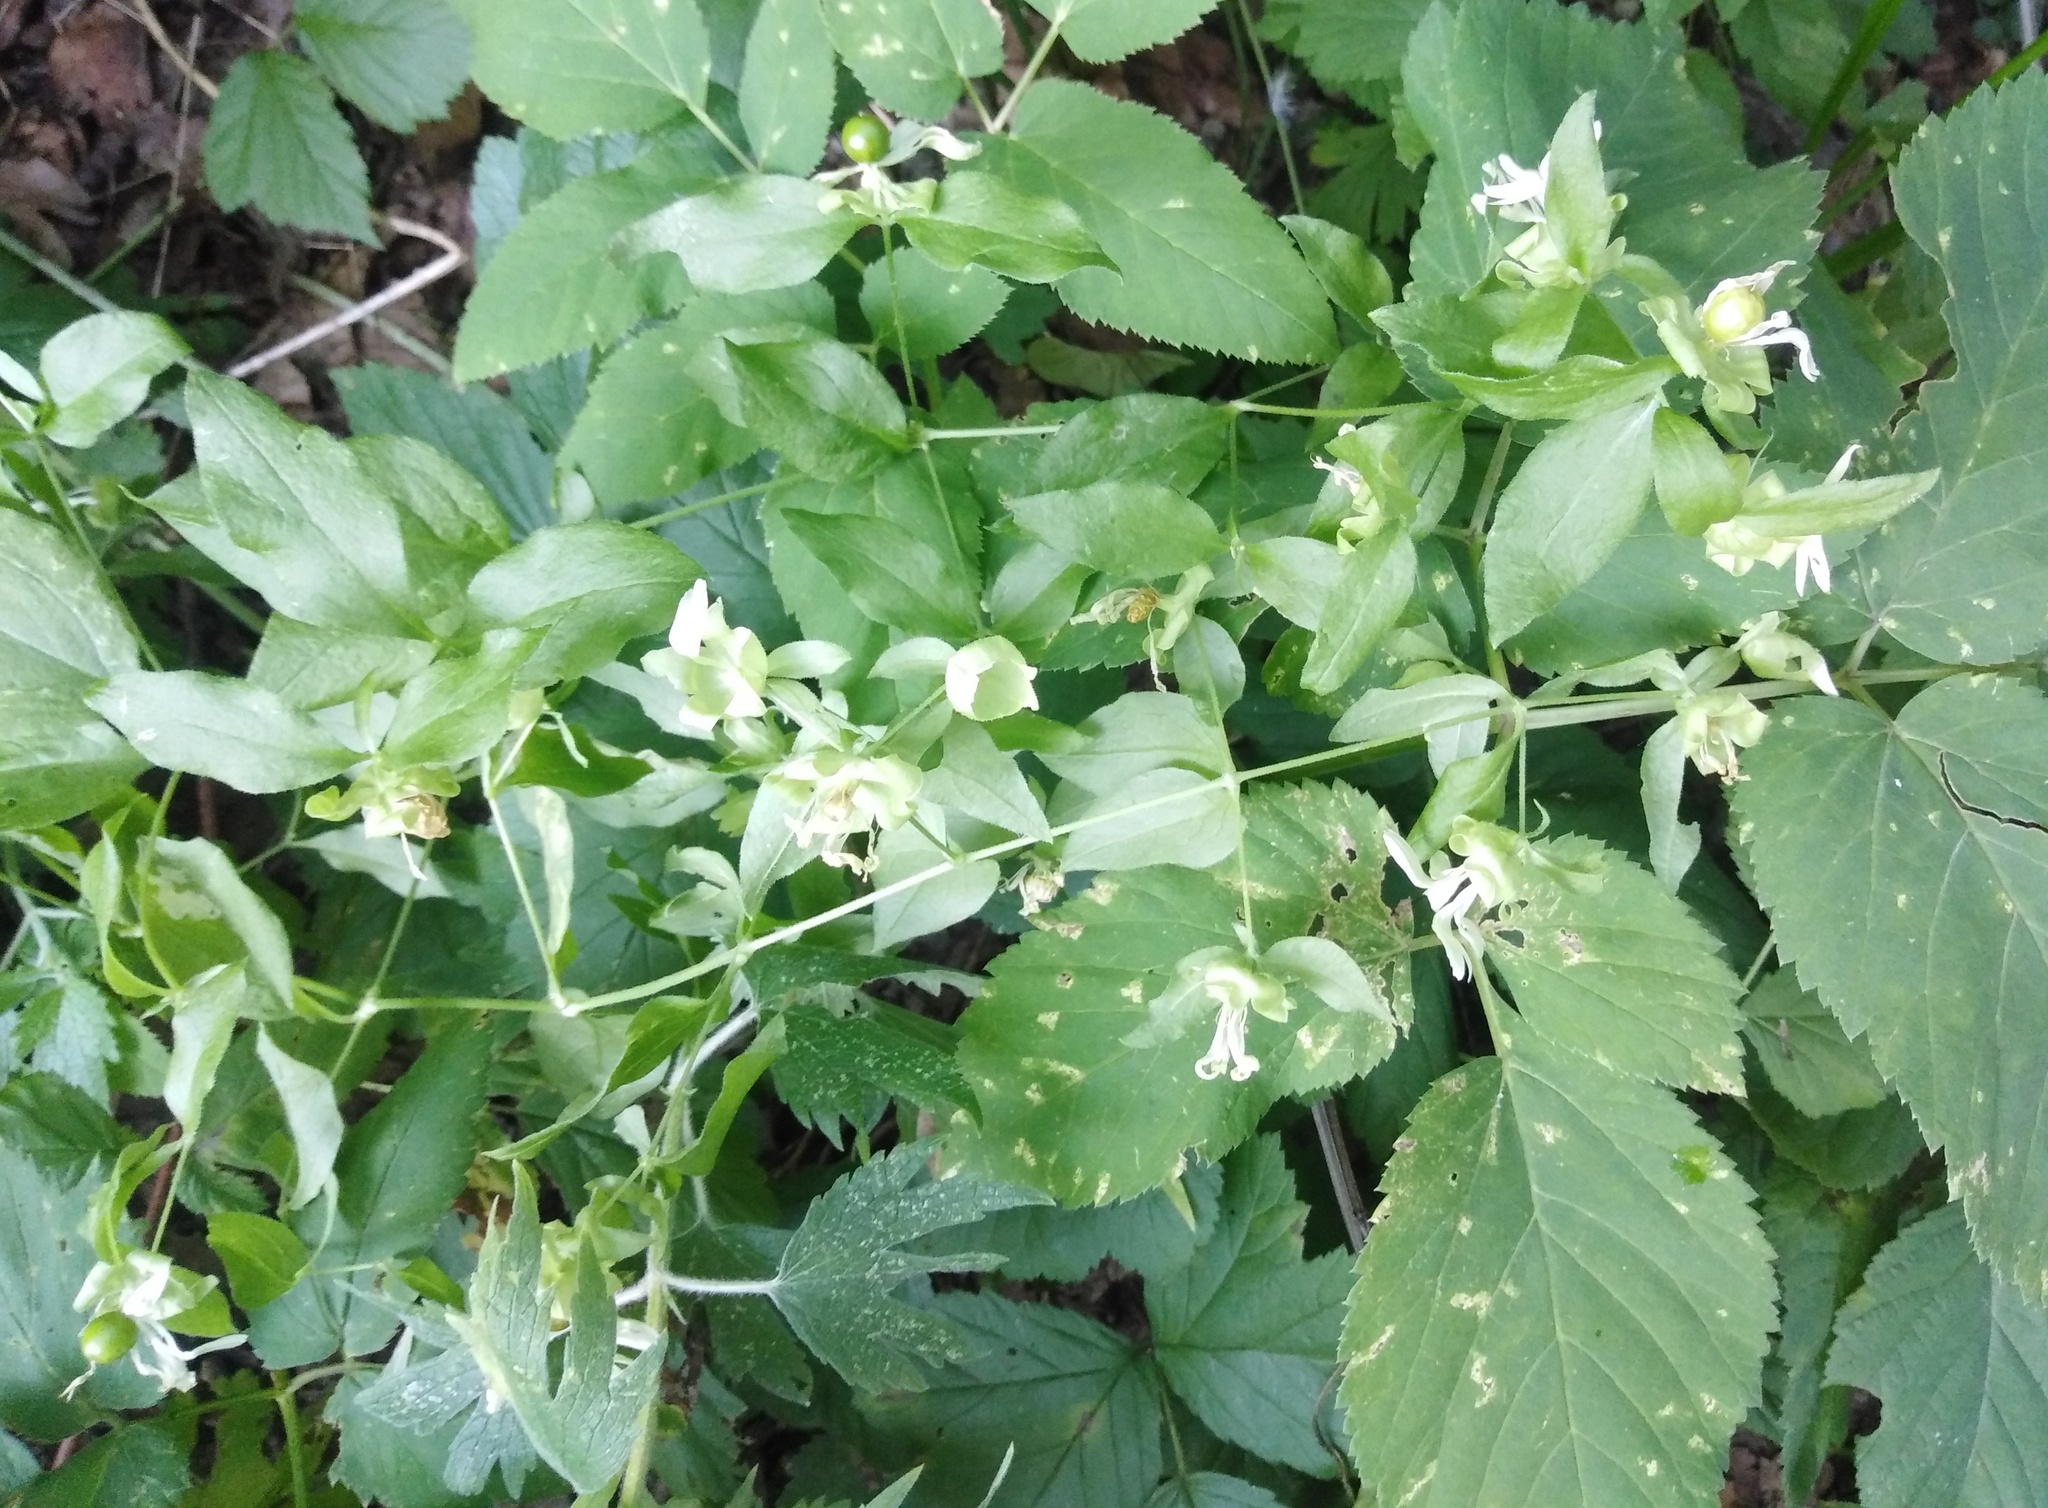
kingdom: Plantae
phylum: Tracheophyta
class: Magnoliopsida
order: Caryophyllales
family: Caryophyllaceae
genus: Silene
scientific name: Silene baccifera
